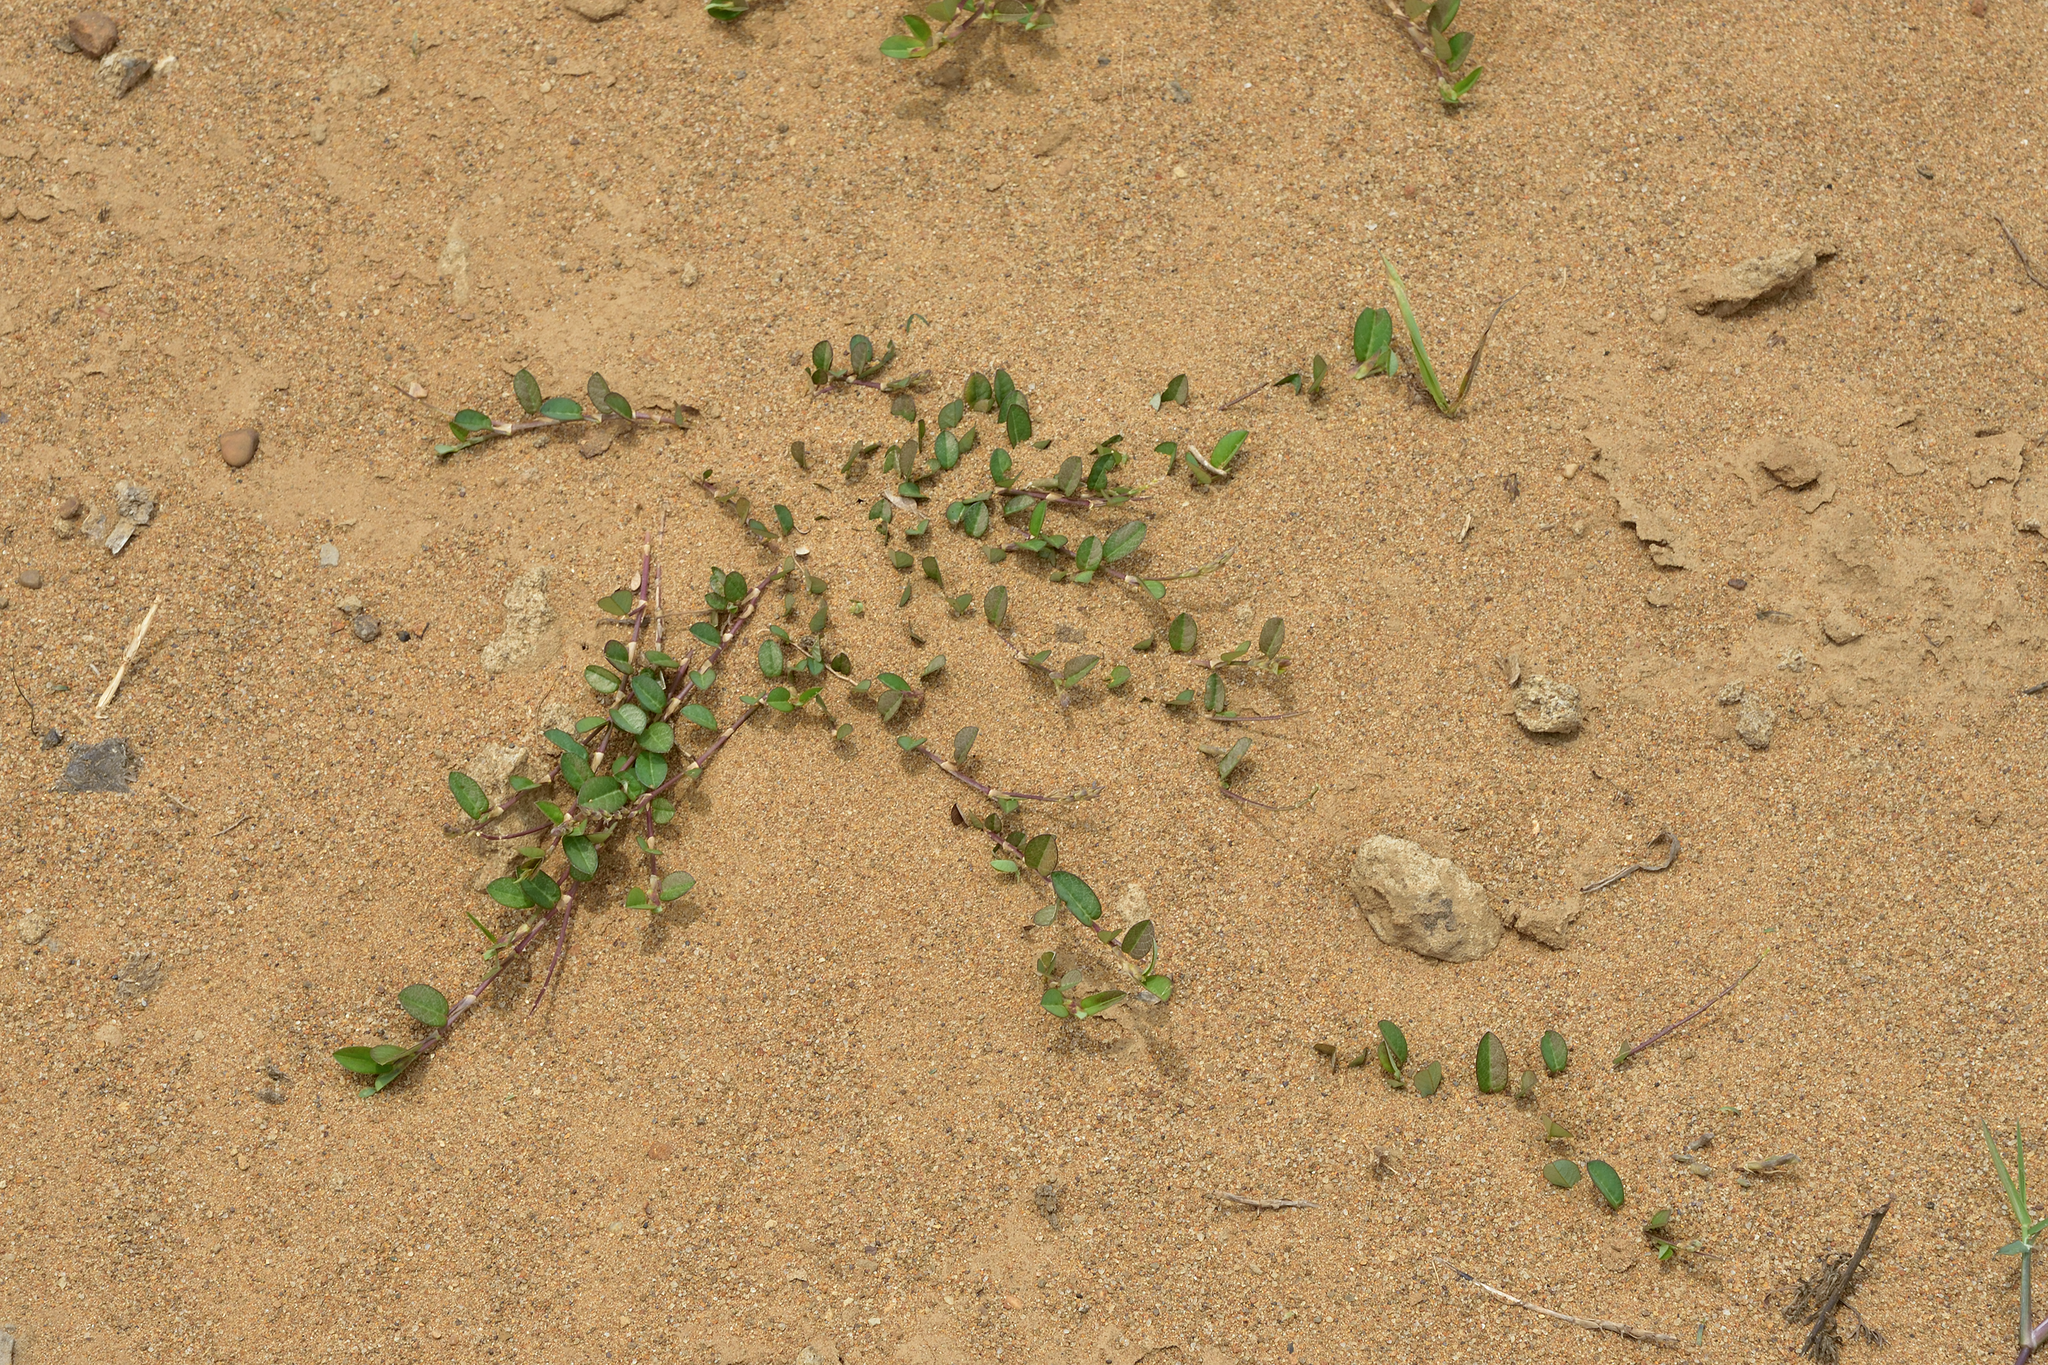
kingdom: Plantae
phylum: Tracheophyta
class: Magnoliopsida
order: Fabales
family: Fabaceae
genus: Alysicarpus
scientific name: Alysicarpus vaginalis
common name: White moneywort
